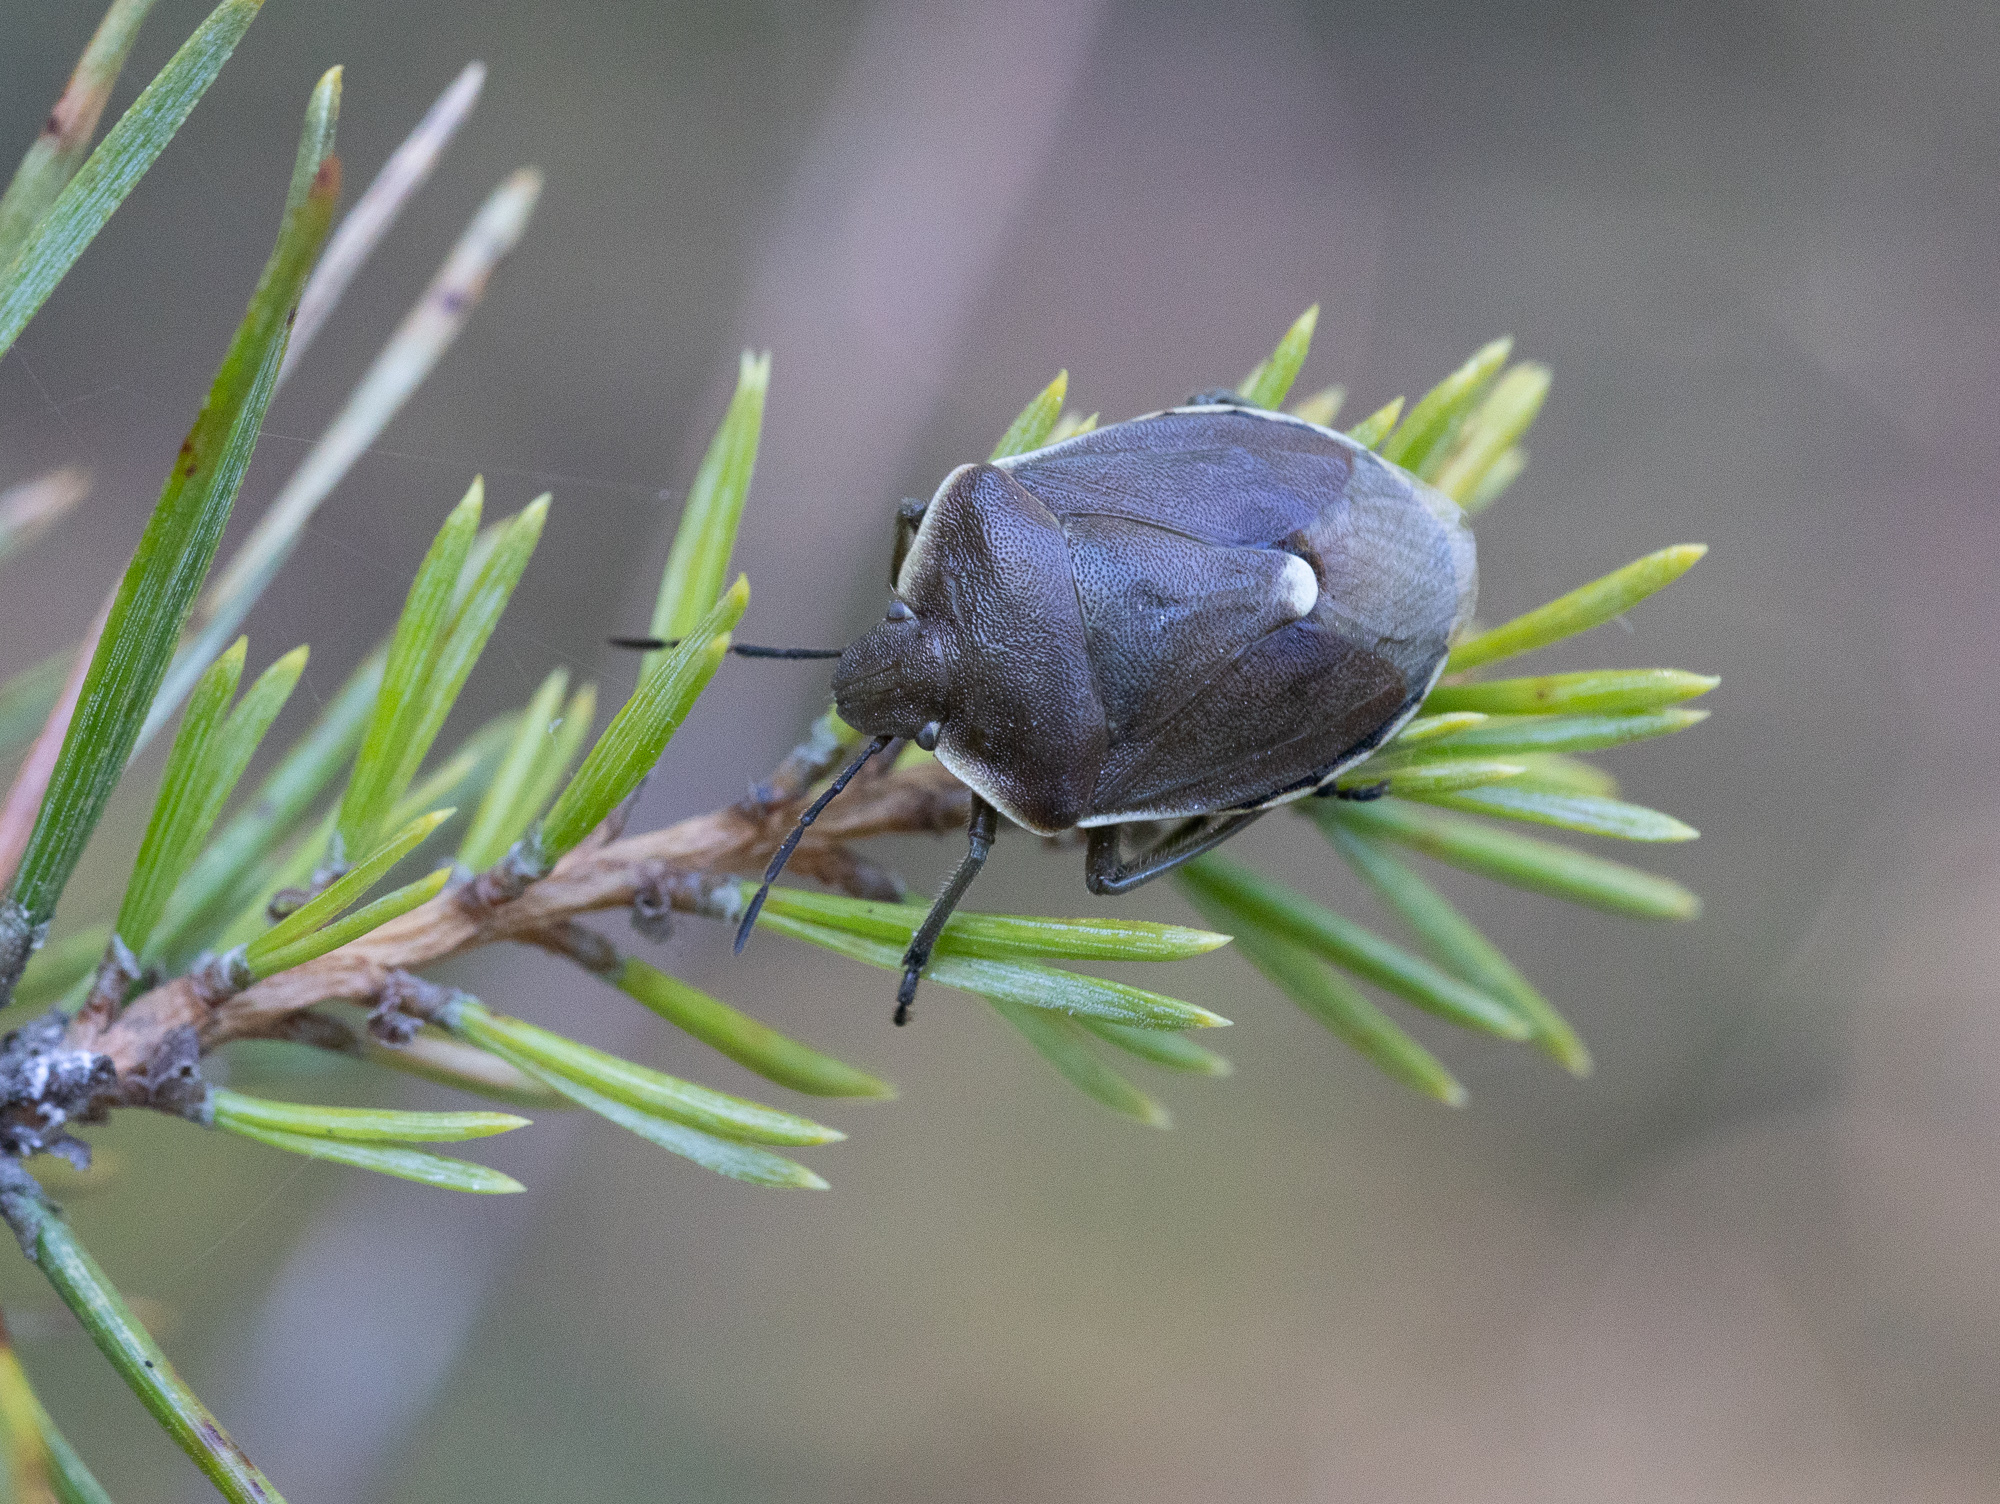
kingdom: Animalia
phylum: Arthropoda
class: Insecta
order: Hemiptera
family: Pentatomidae
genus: Chlorochroa
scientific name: Chlorochroa pinicola
